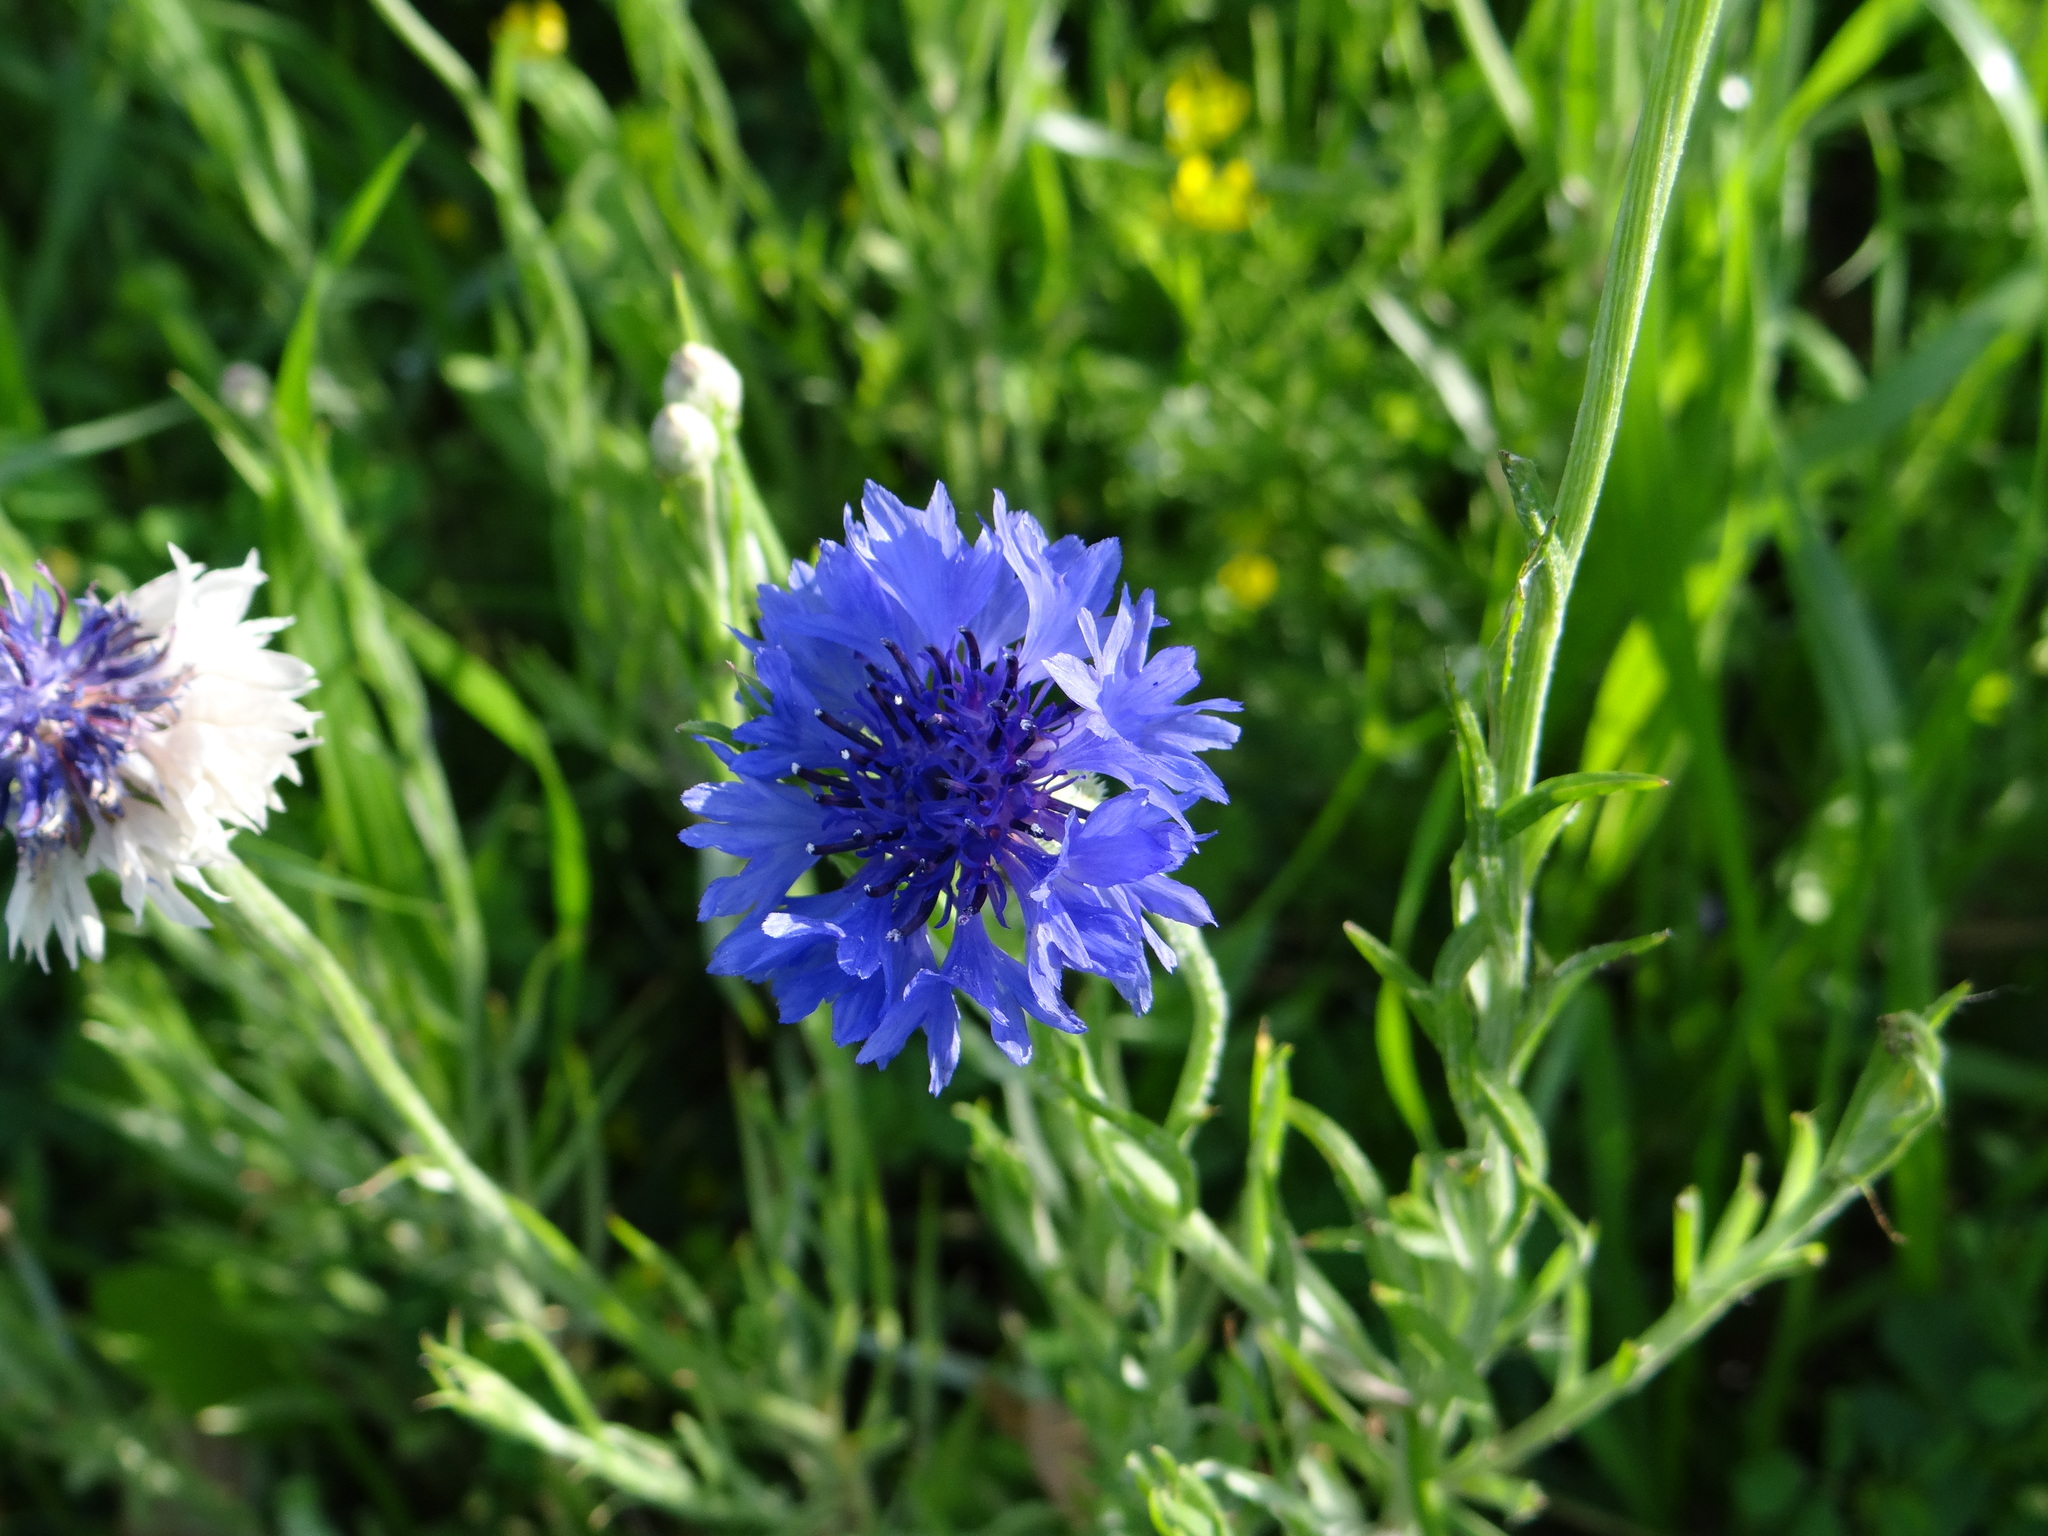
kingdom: Plantae
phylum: Tracheophyta
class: Magnoliopsida
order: Asterales
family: Asteraceae
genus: Centaurea
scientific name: Centaurea cyanus
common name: Cornflower
